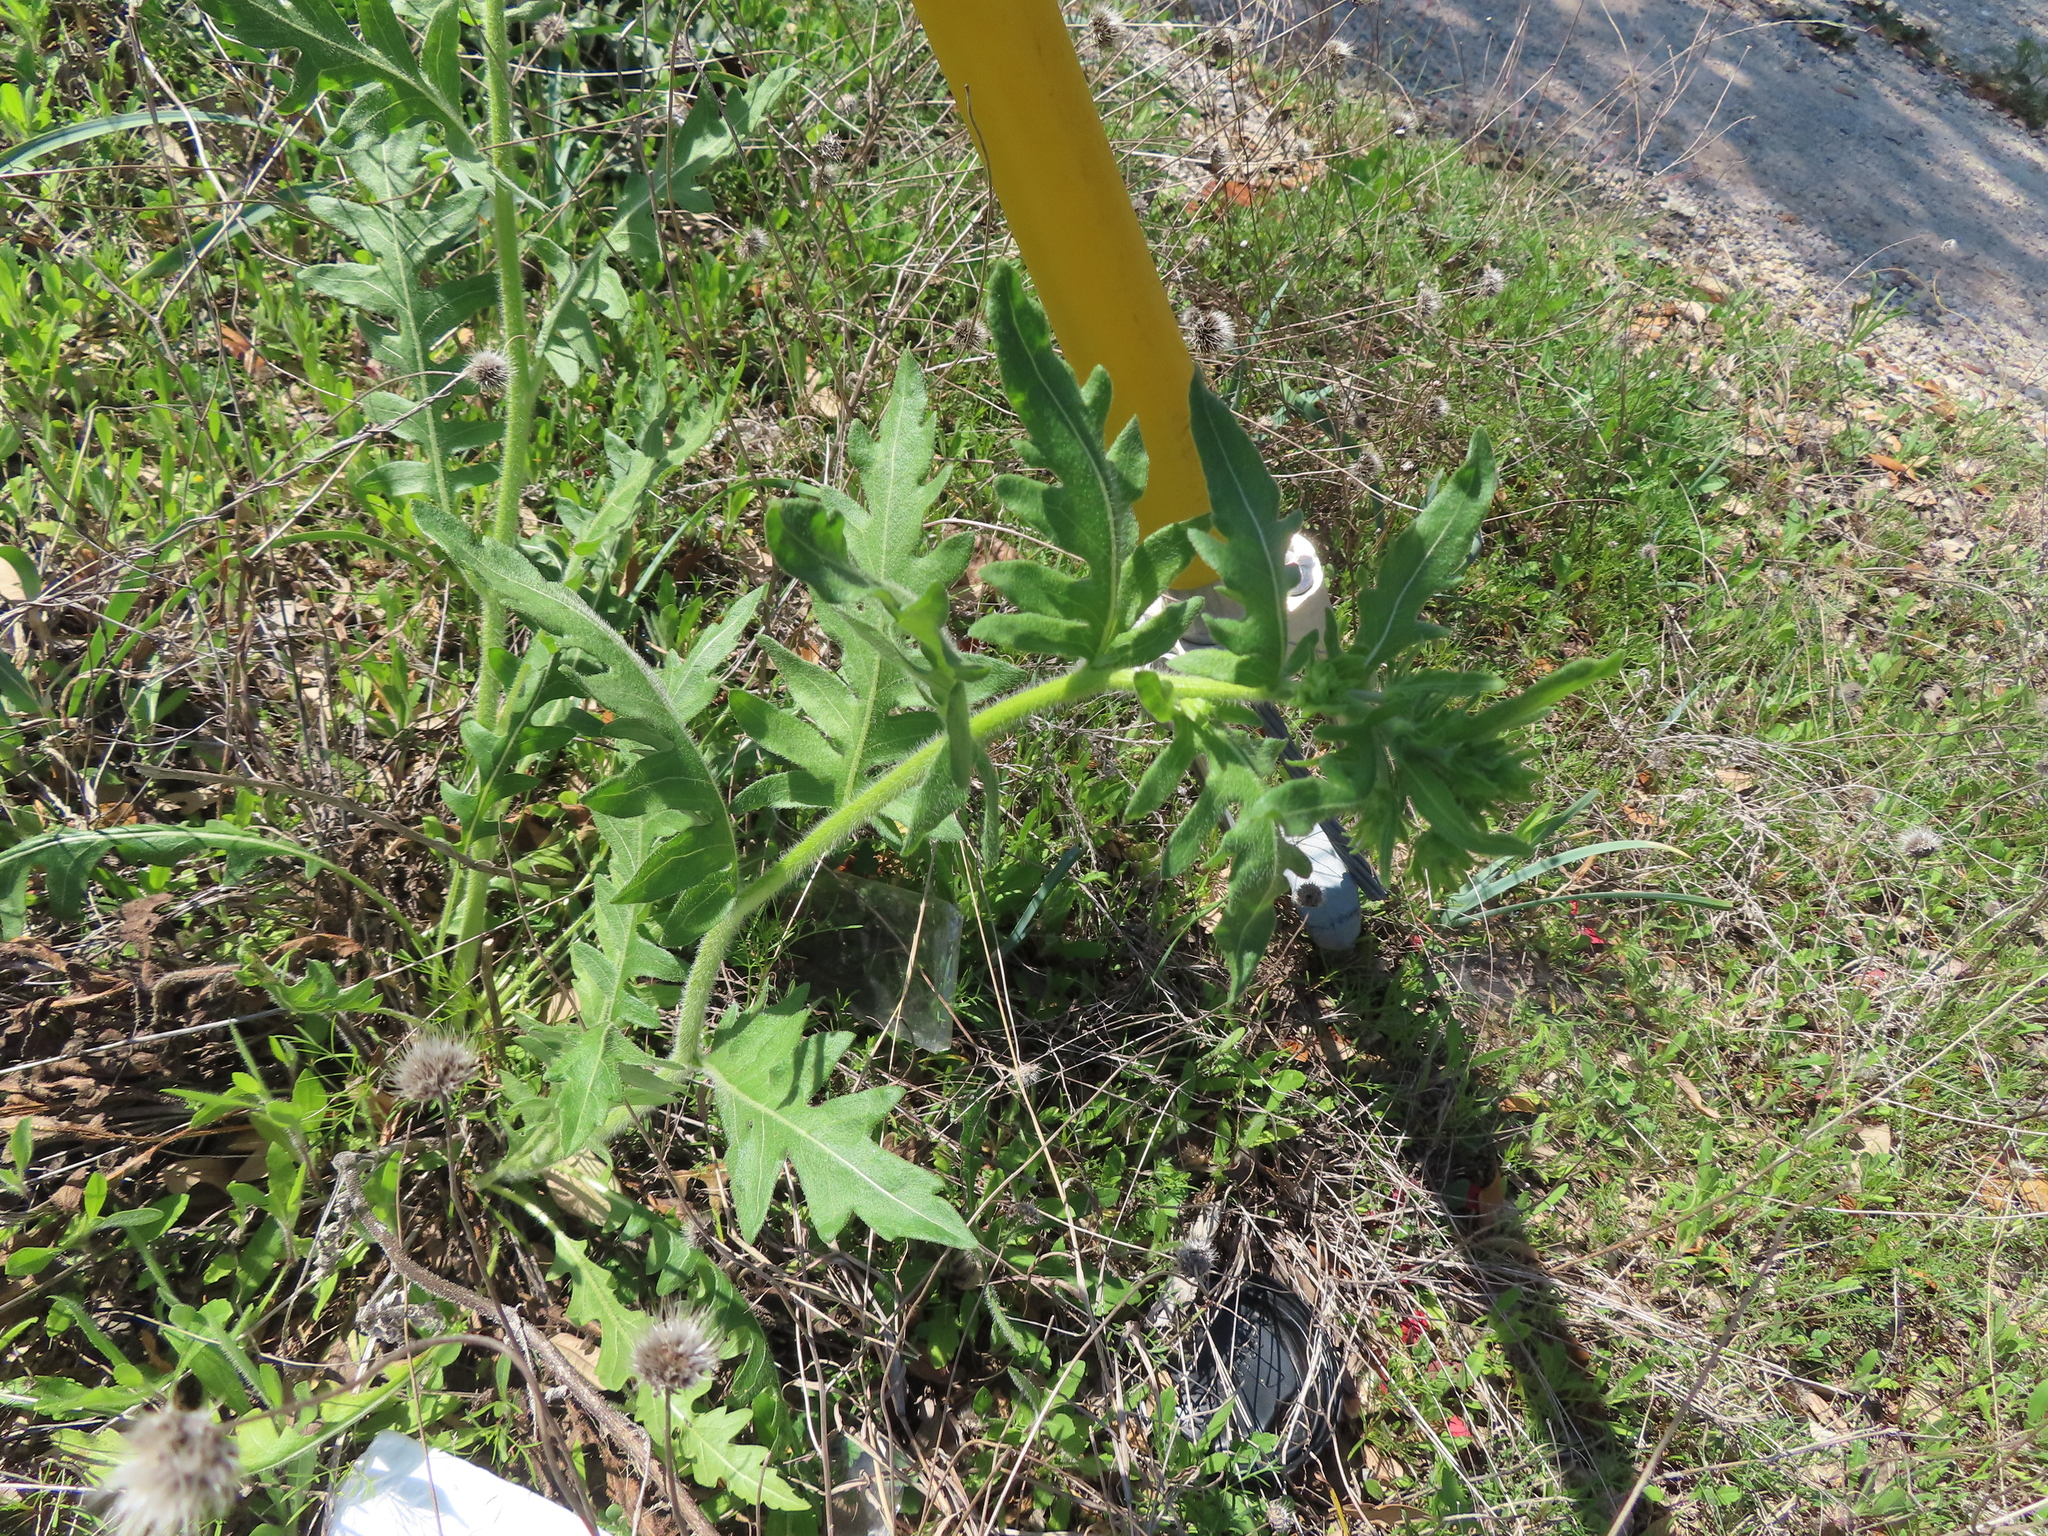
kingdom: Plantae
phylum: Tracheophyta
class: Magnoliopsida
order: Asterales
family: Asteraceae
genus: Engelmannia
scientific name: Engelmannia peristenia
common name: Engelmann's daisy
